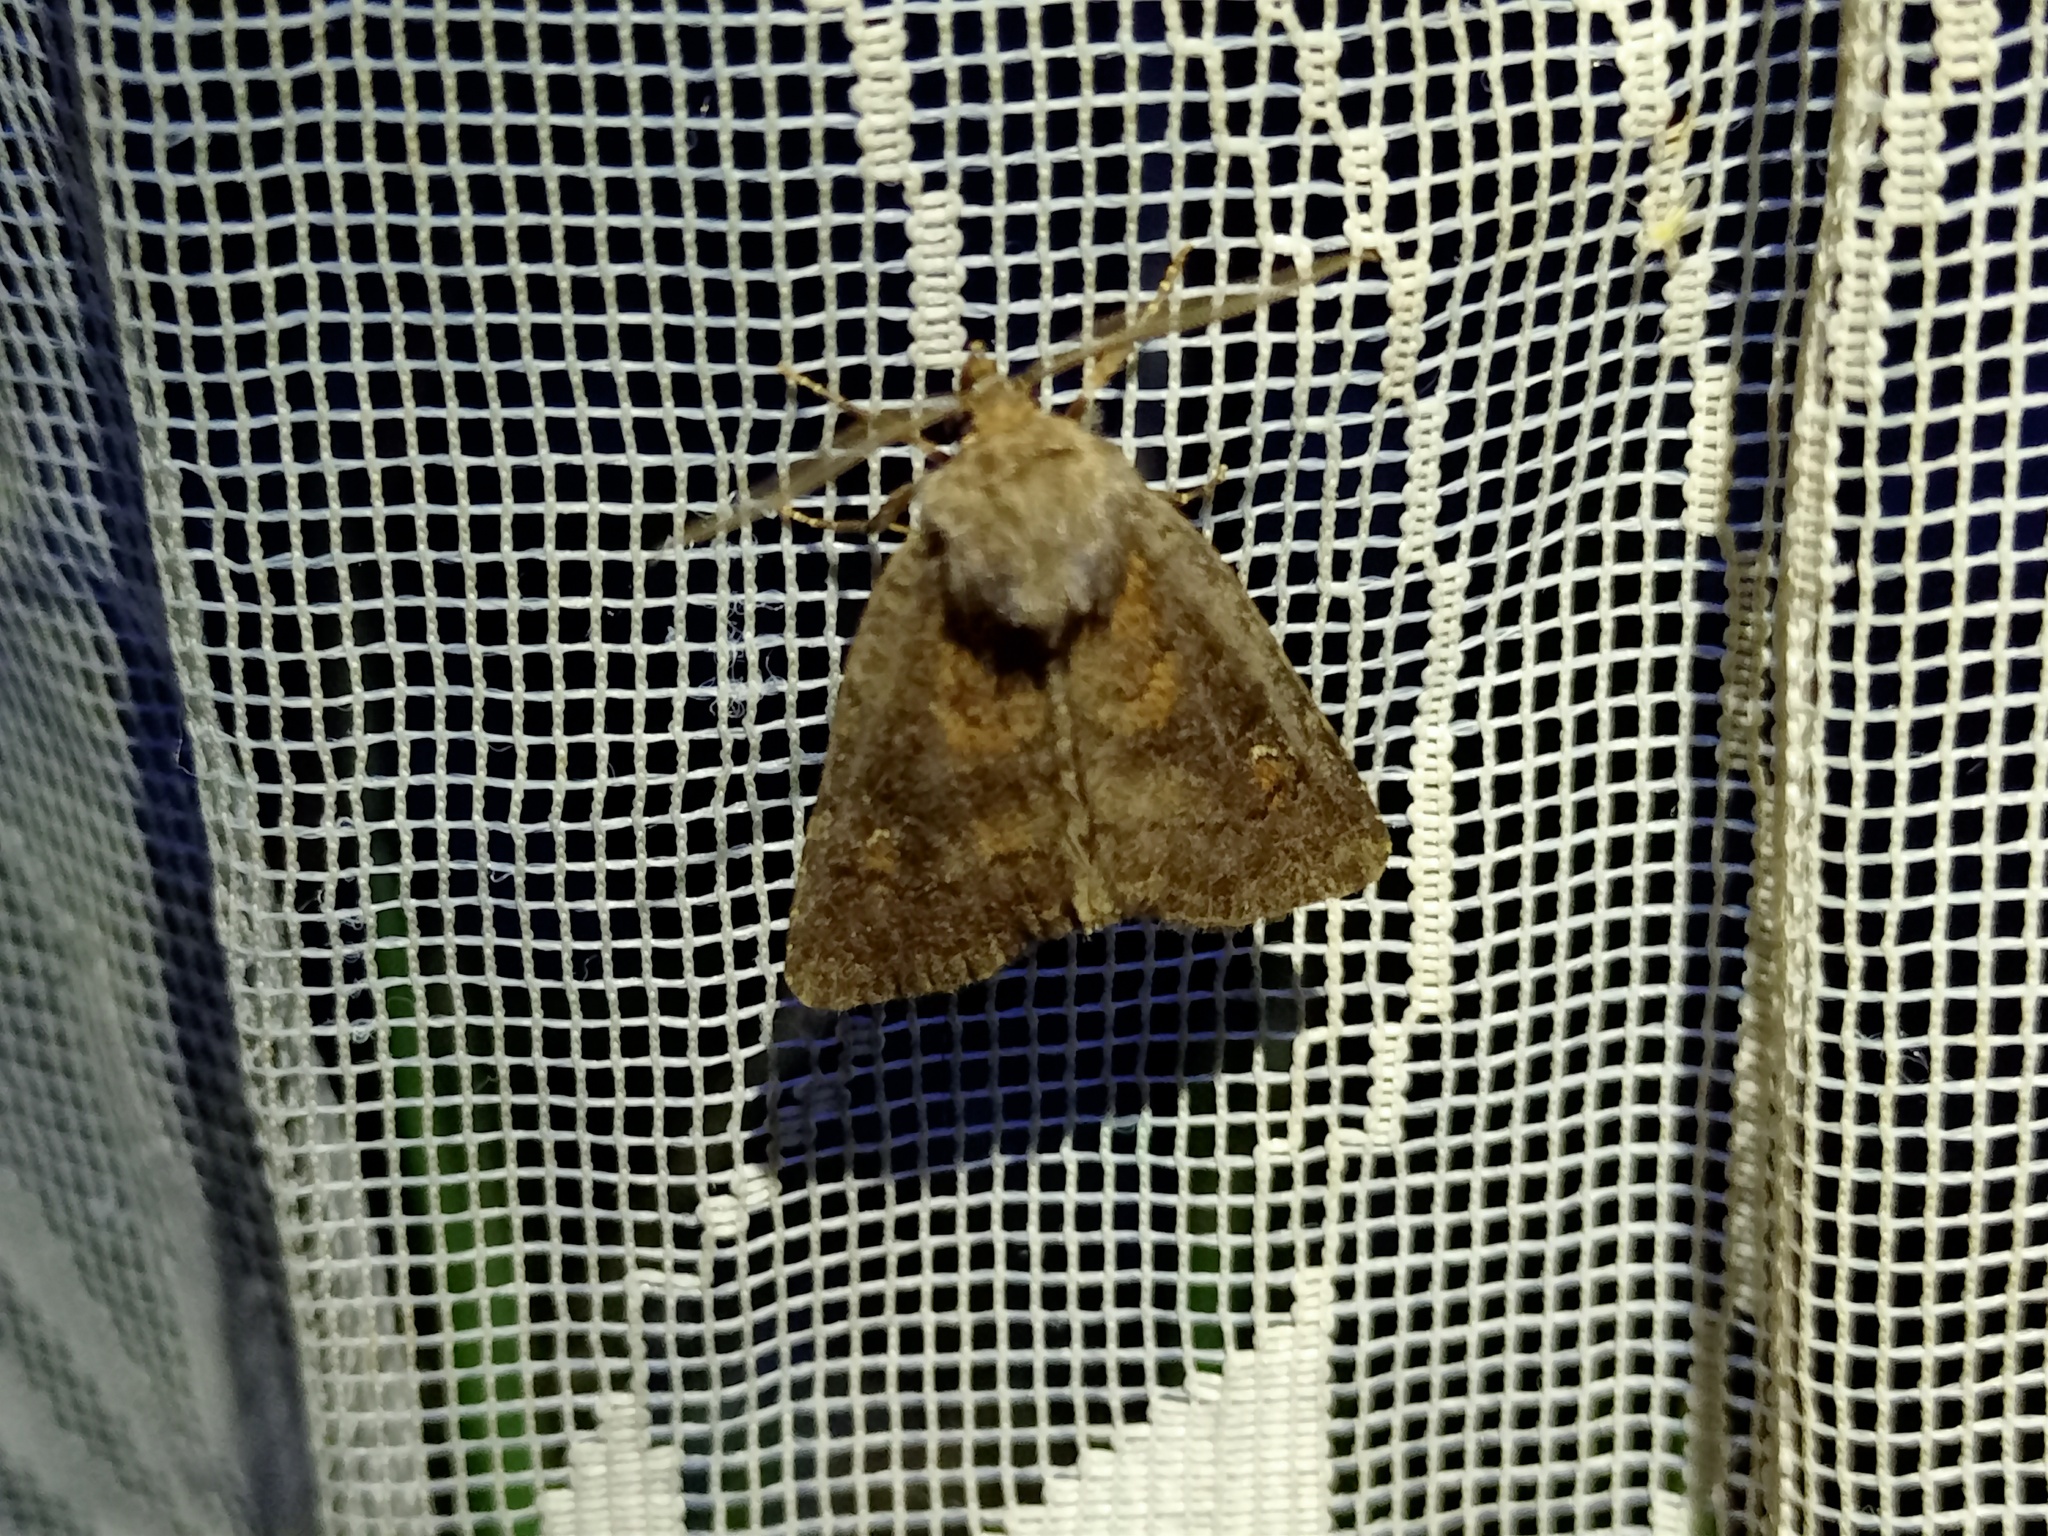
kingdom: Animalia
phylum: Arthropoda
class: Insecta
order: Lepidoptera
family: Noctuidae
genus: Charanyca
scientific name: Charanyca ferruginea
